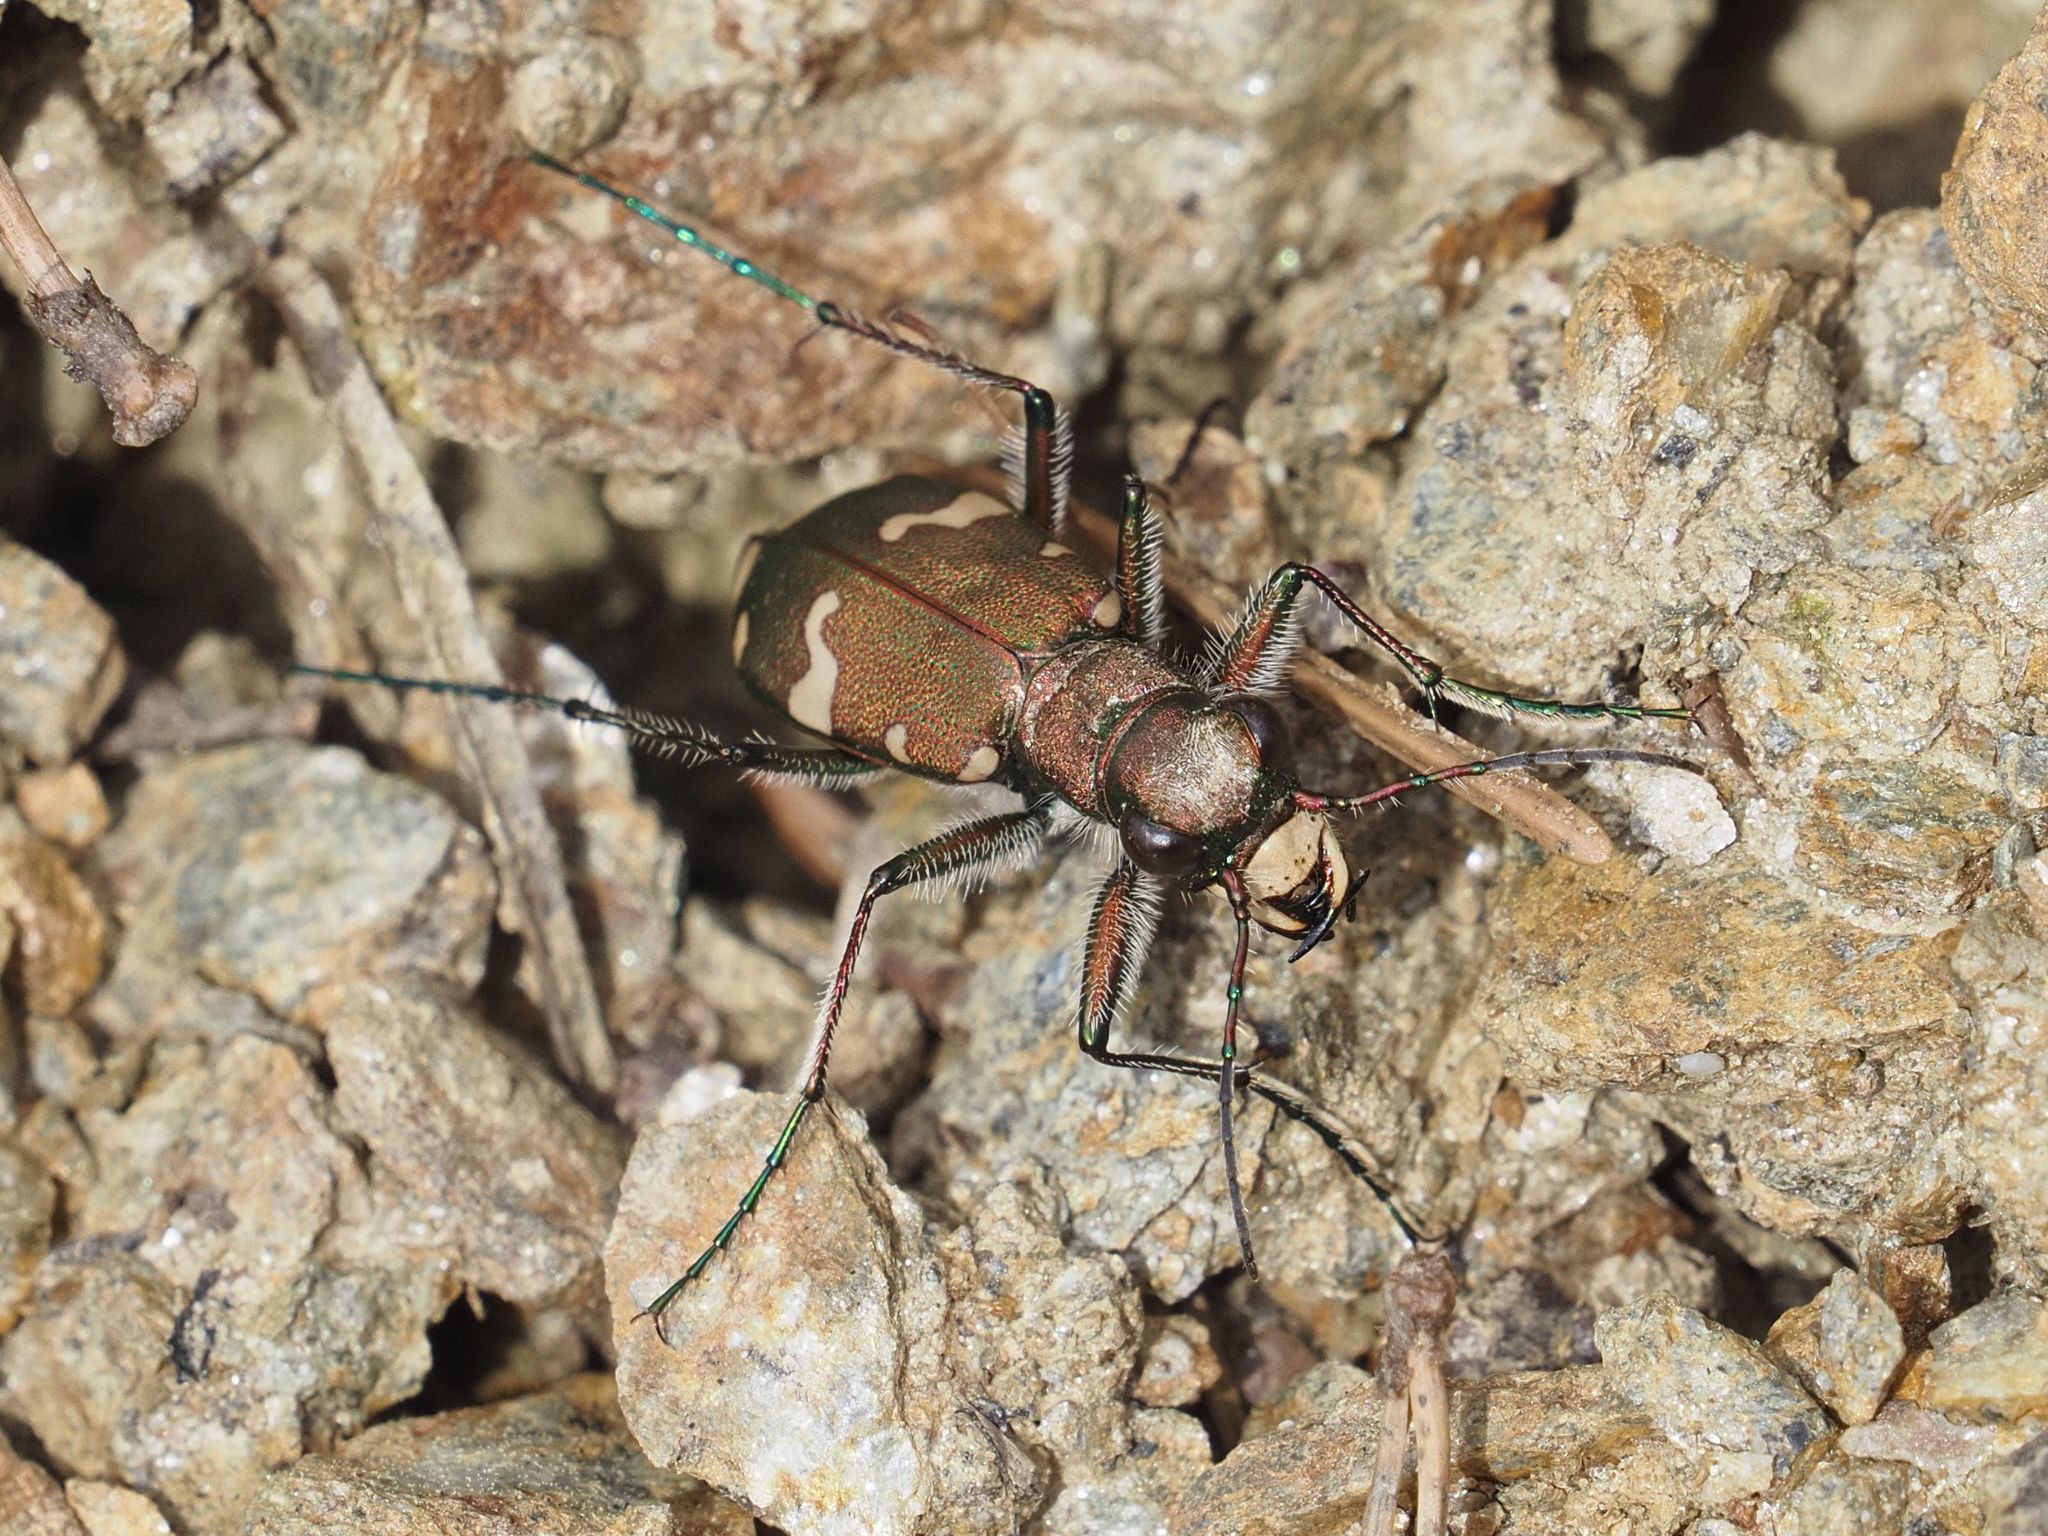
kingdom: Animalia
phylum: Arthropoda
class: Insecta
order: Coleoptera
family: Carabidae
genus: Cicindela
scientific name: Cicindela sylvicola
